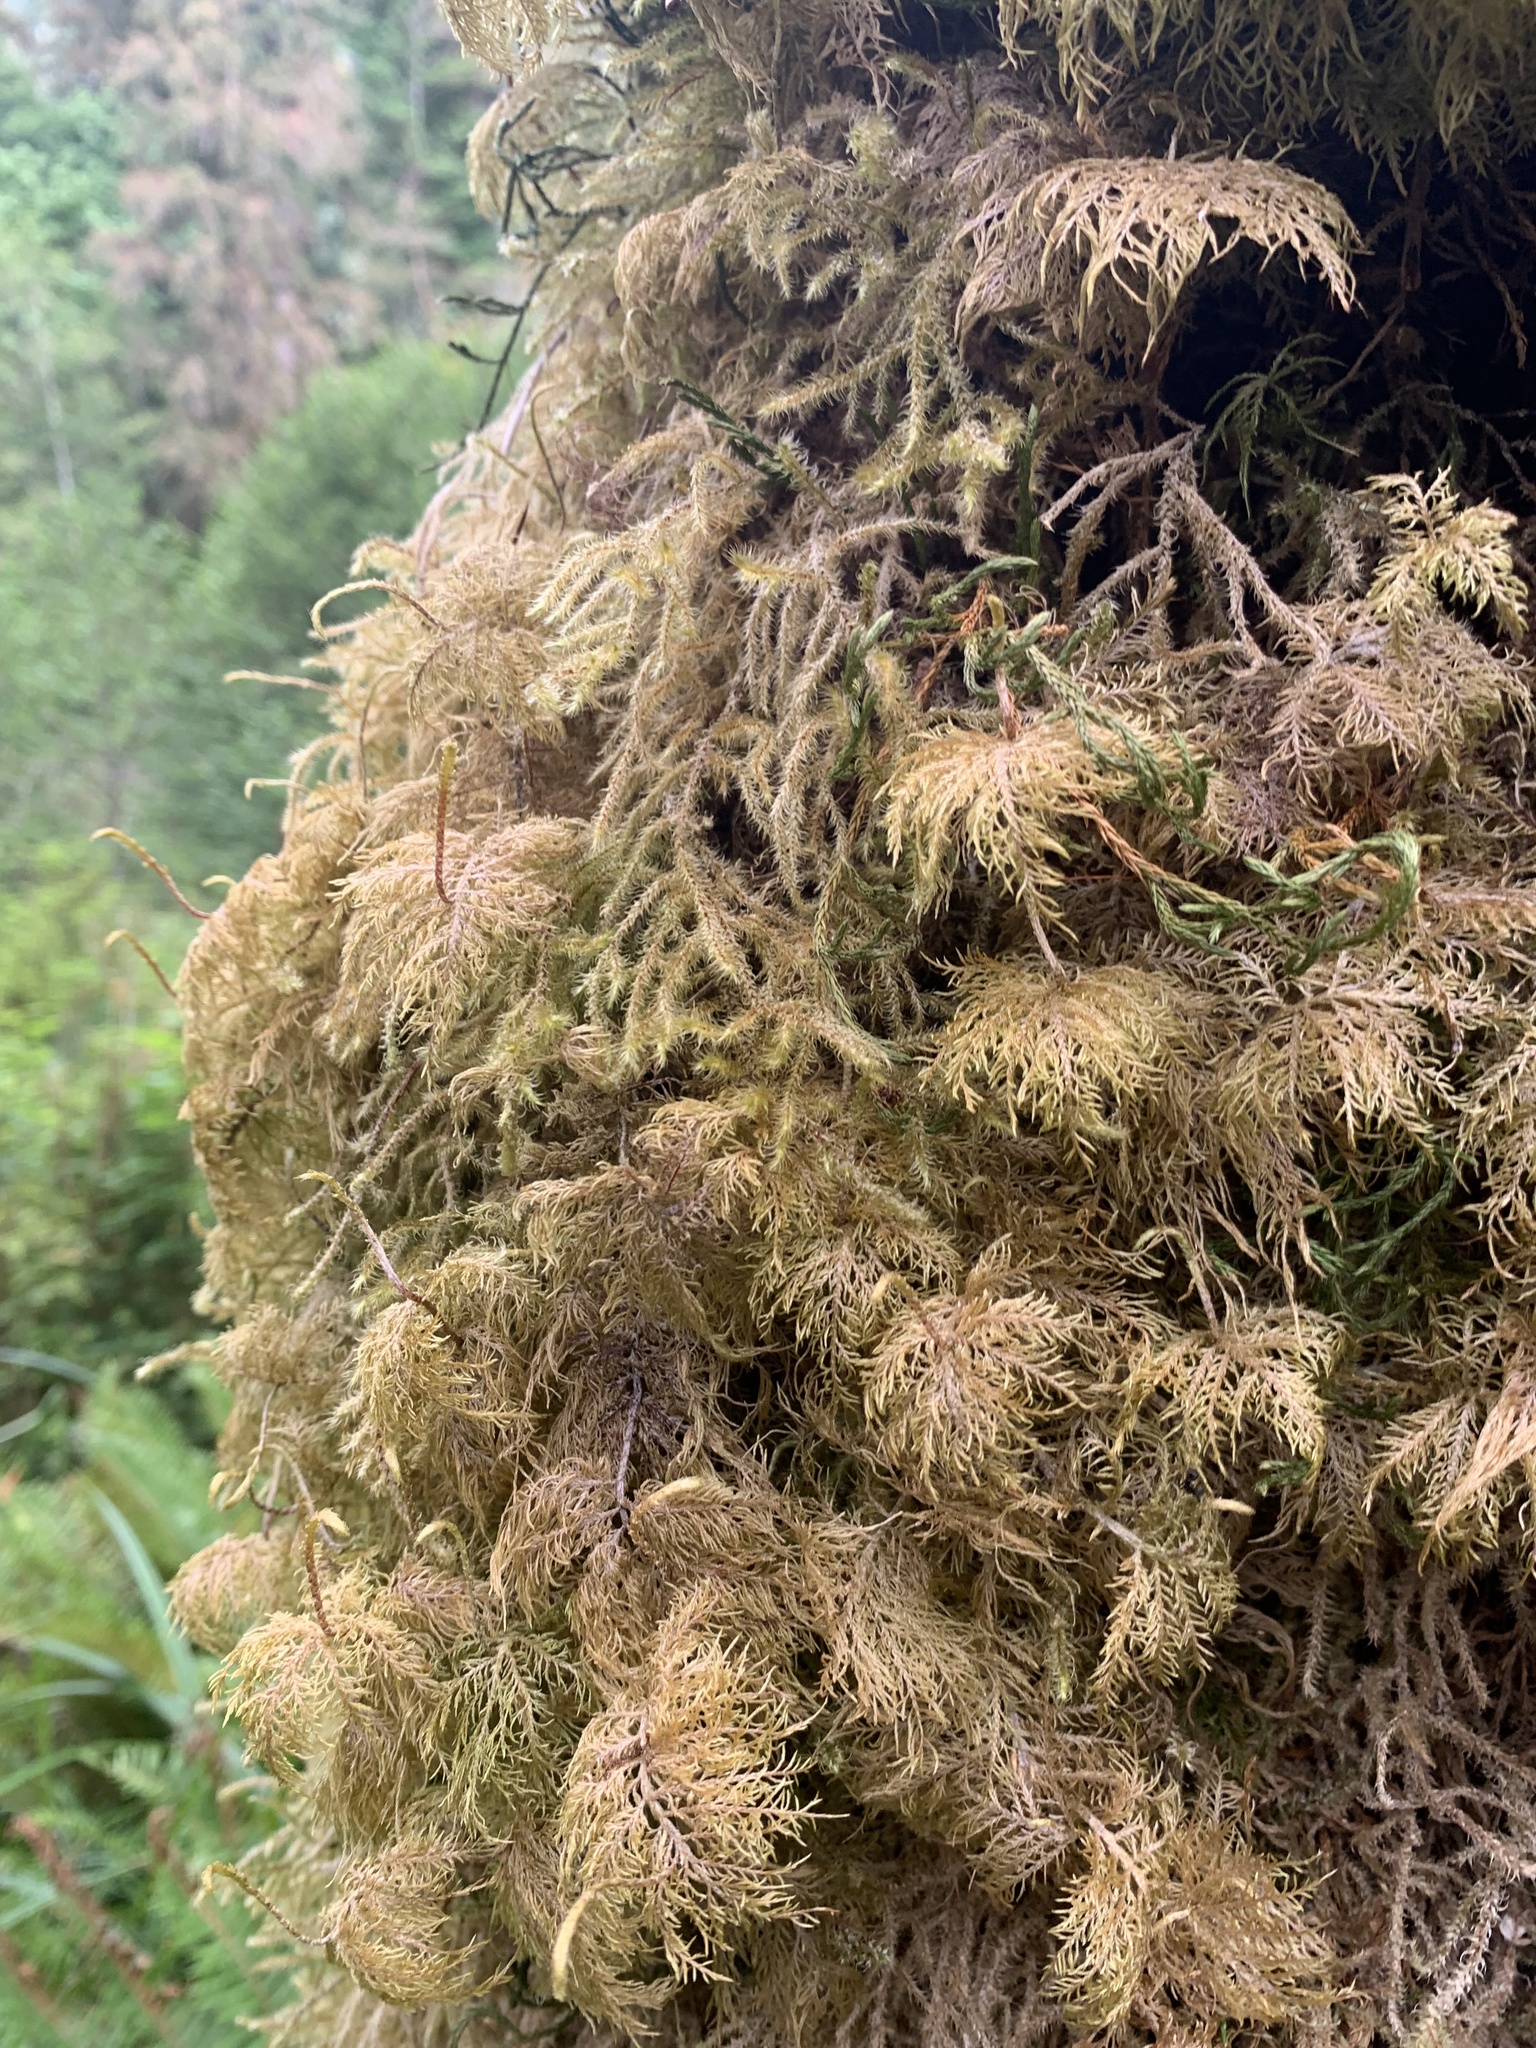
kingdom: Plantae
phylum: Bryophyta
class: Bryopsida
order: Hypnales
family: Hylocomiaceae
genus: Hylocomium
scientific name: Hylocomium splendens
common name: Stairstep moss
